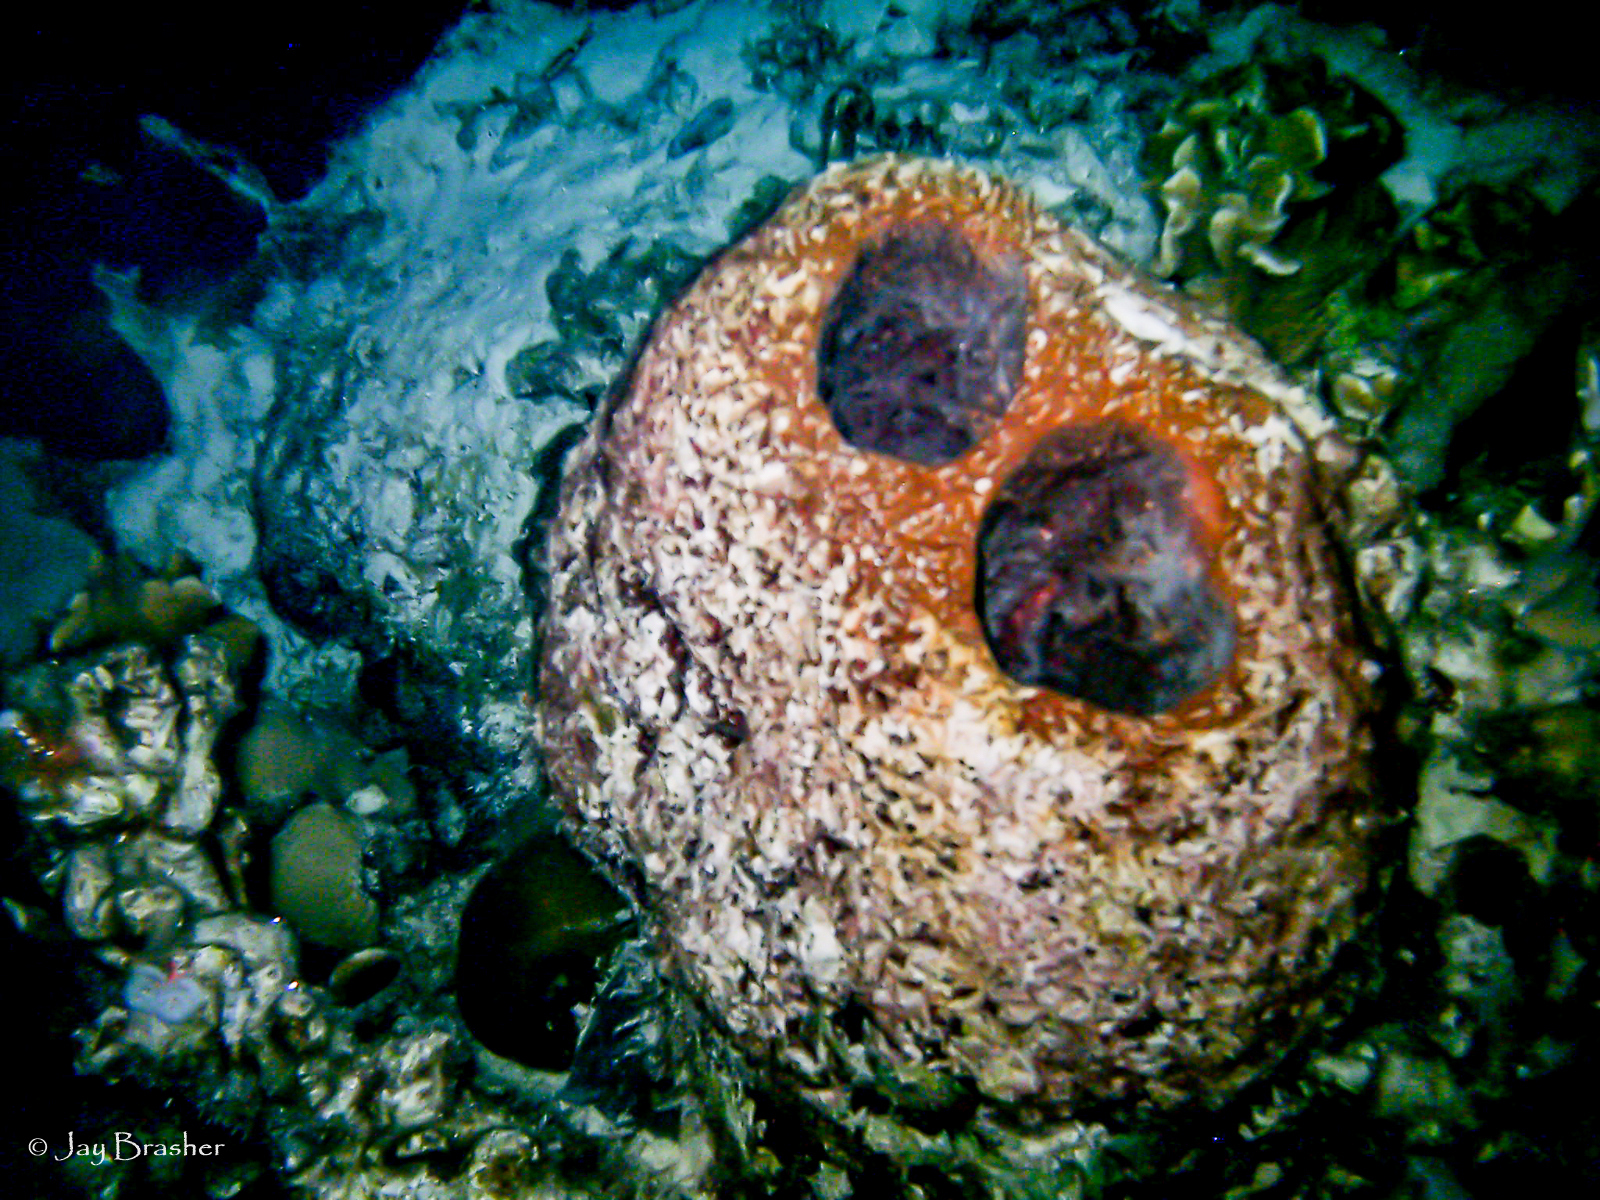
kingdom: Animalia
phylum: Porifera
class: Demospongiae
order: Biemnida
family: Biemnidae
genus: Neofibularia
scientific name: Neofibularia nolitangere
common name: Do-not-touch-me sponge
